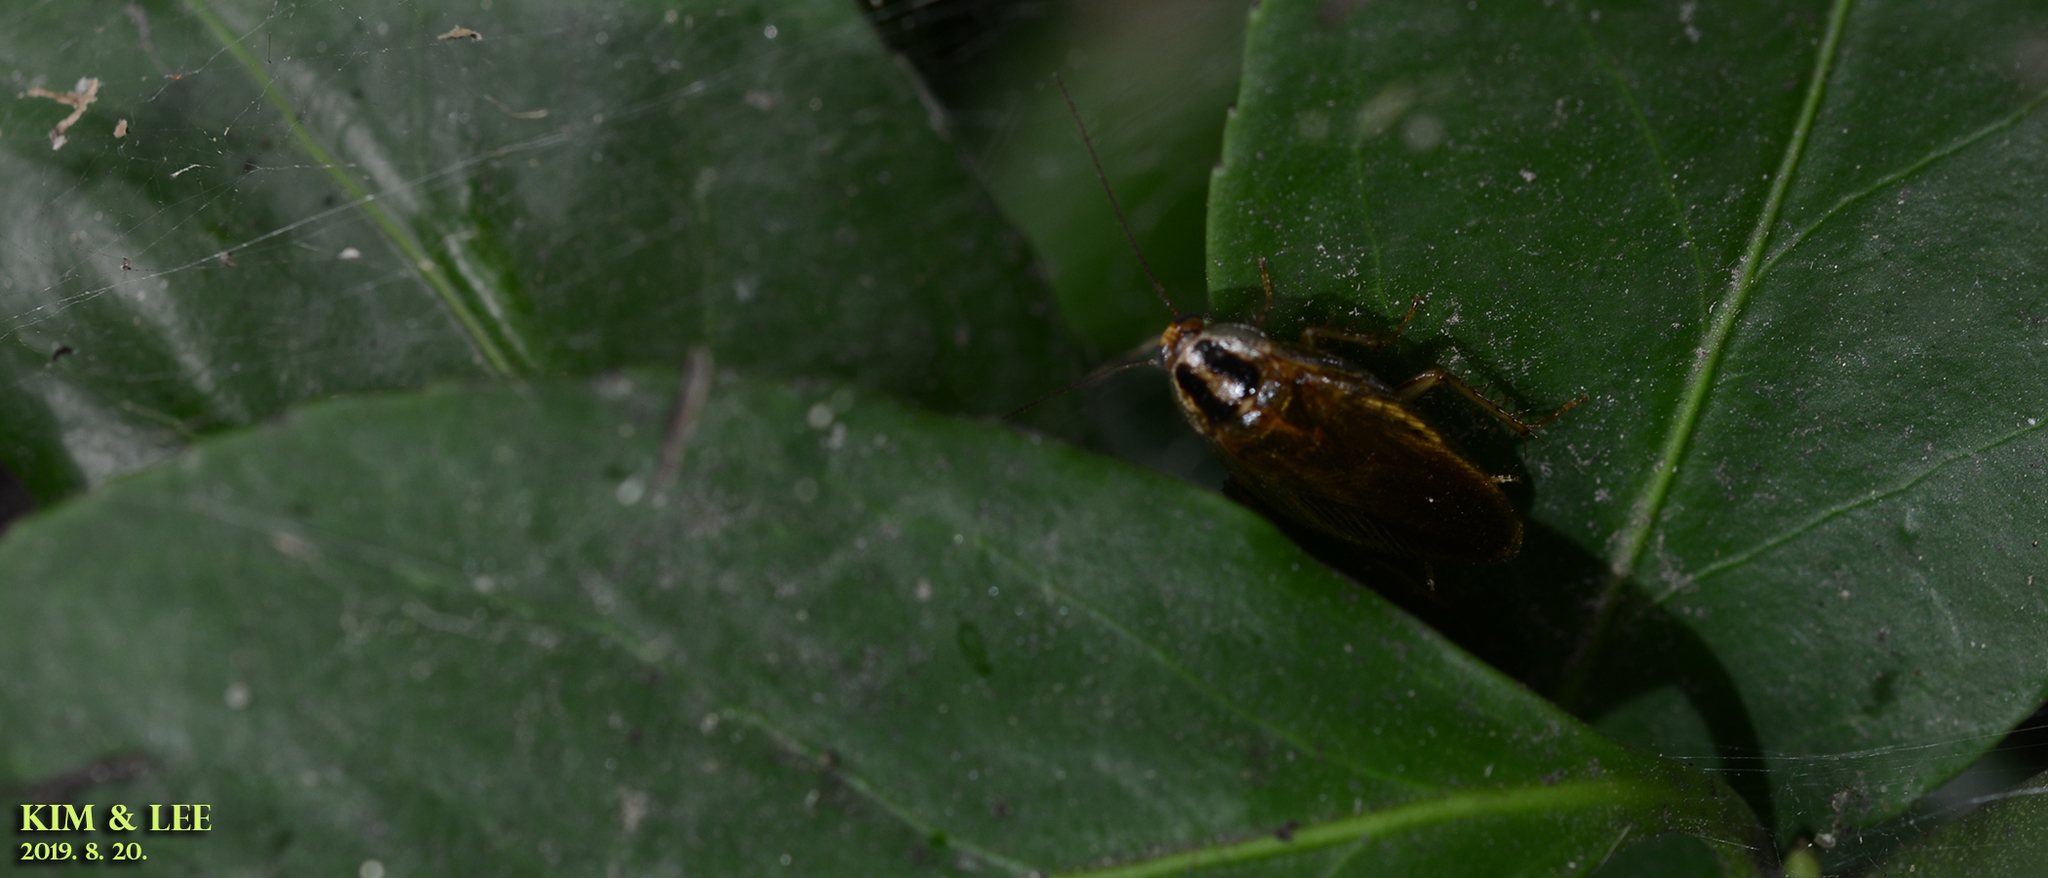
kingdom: Animalia
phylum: Arthropoda
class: Insecta
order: Blattodea
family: Ectobiidae
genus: Blattella
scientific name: Blattella nipponica
